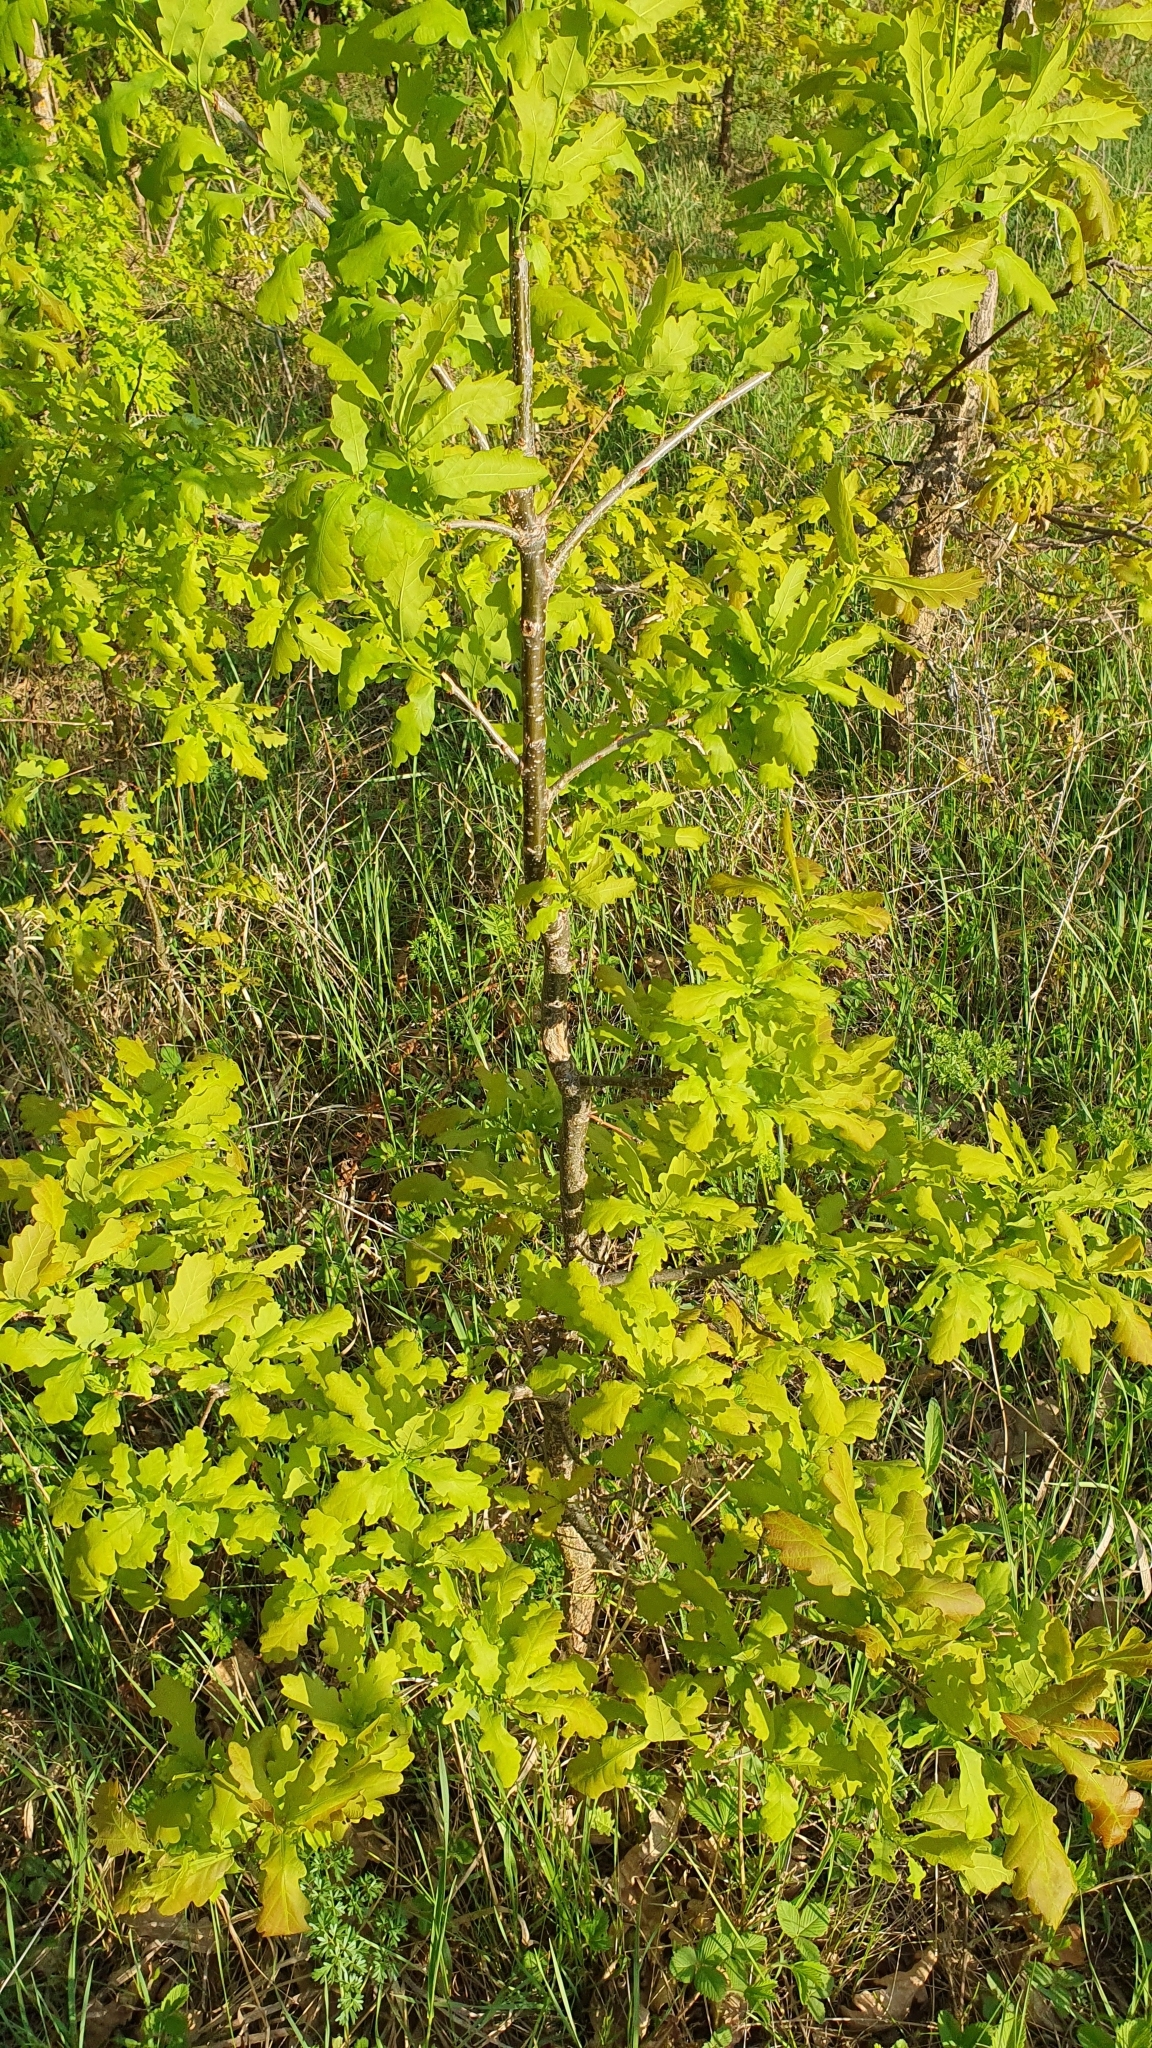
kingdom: Plantae
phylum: Tracheophyta
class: Magnoliopsida
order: Fagales
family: Fagaceae
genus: Quercus
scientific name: Quercus robur
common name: Pedunculate oak
